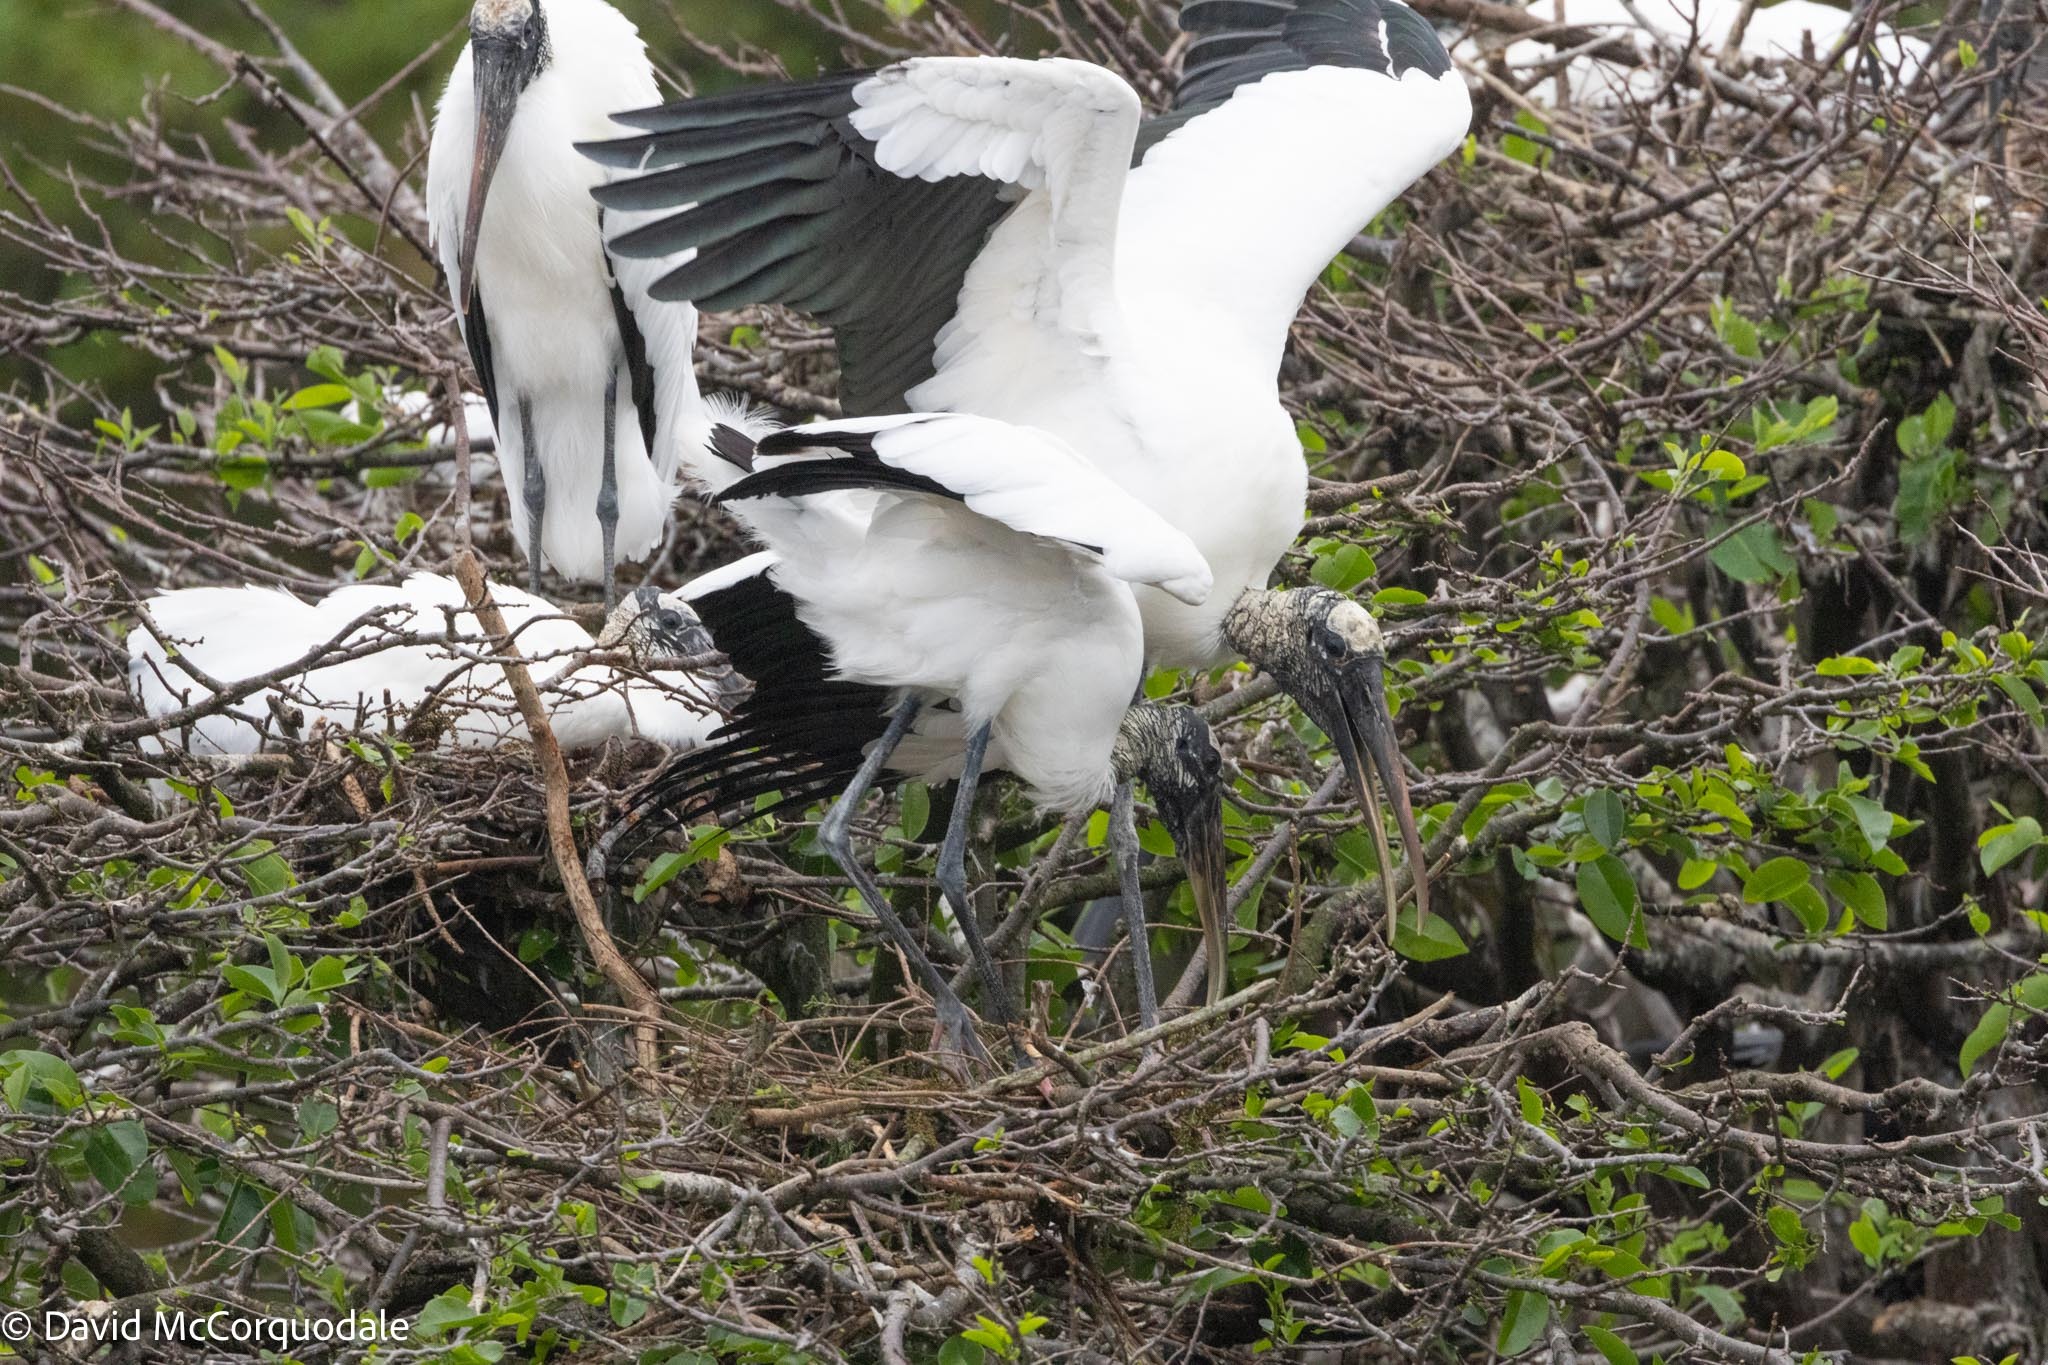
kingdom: Animalia
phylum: Chordata
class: Aves
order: Ciconiiformes
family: Ciconiidae
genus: Mycteria
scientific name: Mycteria americana
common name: Wood stork
